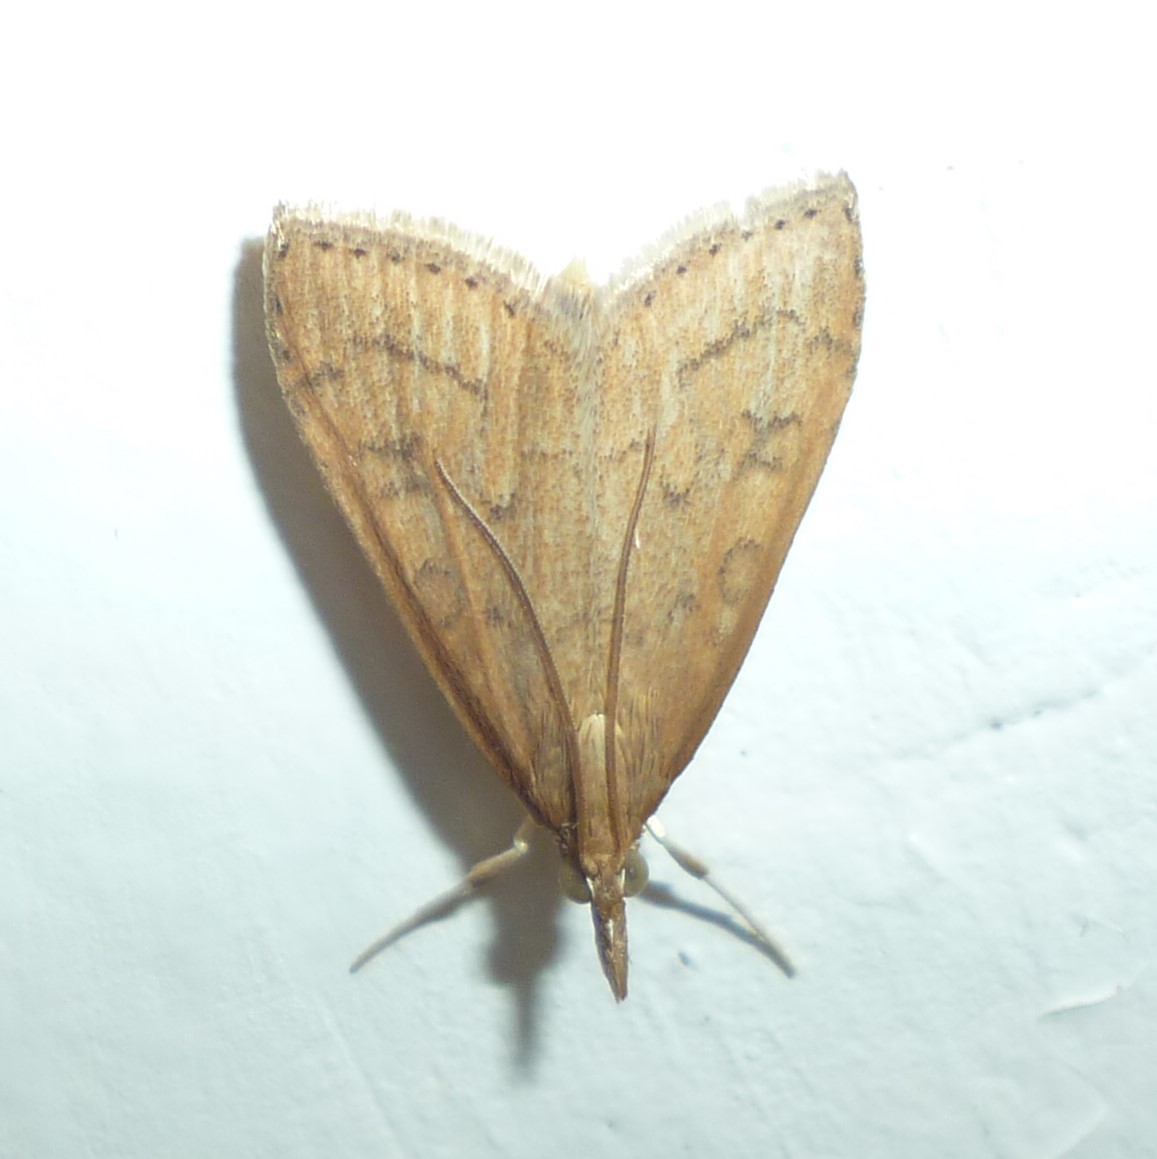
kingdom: Animalia
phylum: Arthropoda
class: Insecta
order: Lepidoptera
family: Crambidae
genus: Udea
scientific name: Udea rubigalis
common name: Celery leaftier moth
